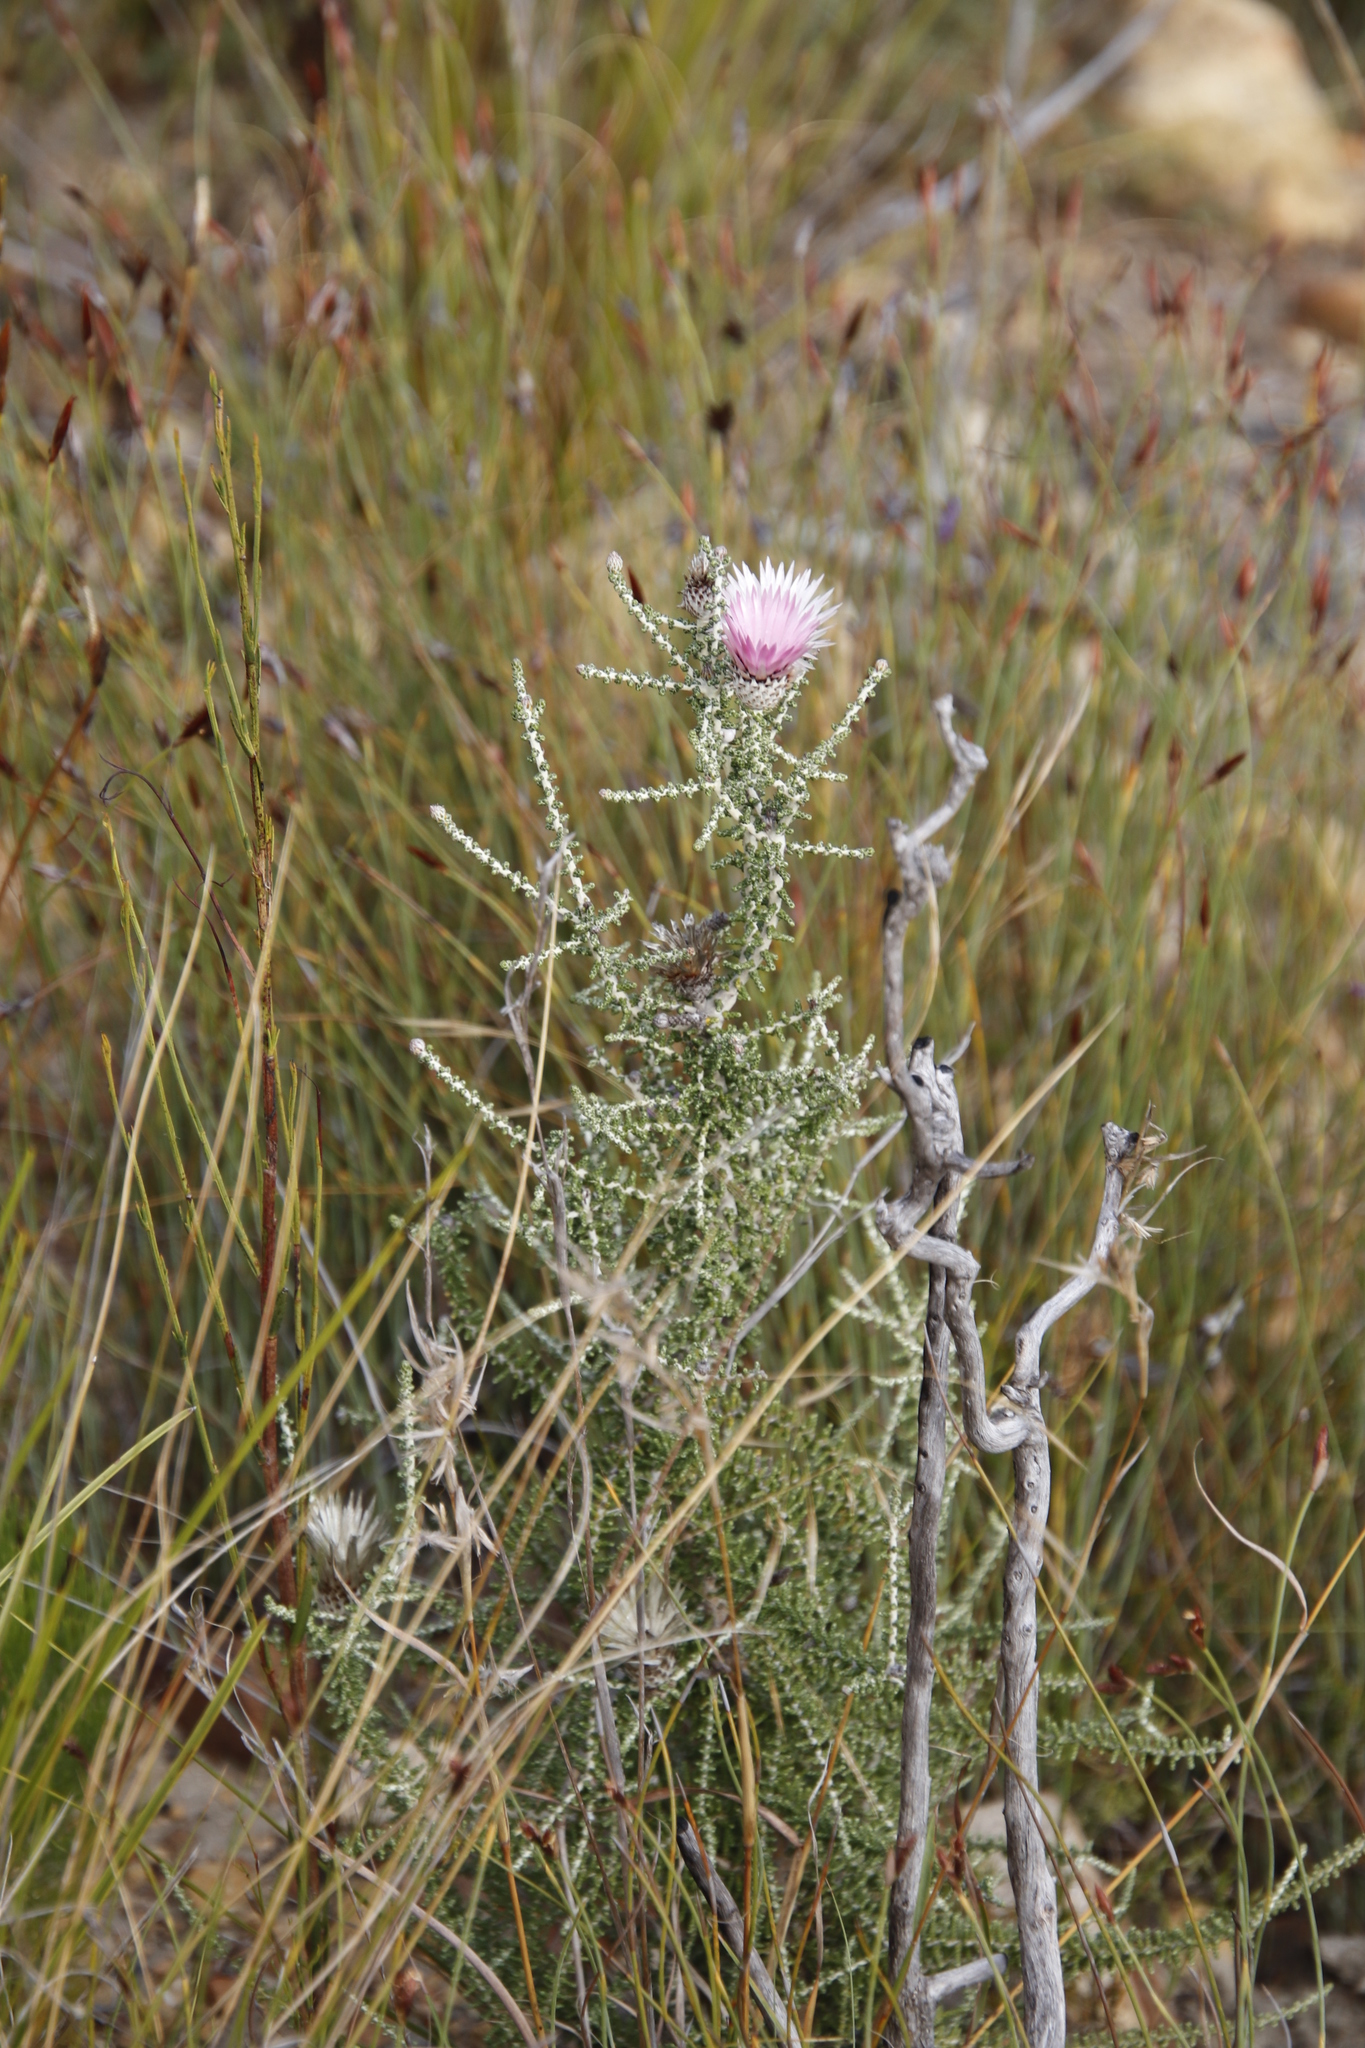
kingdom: Plantae
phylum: Tracheophyta
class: Magnoliopsida
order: Asterales
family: Asteraceae
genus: Phaenocoma
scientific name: Phaenocoma prolifera
